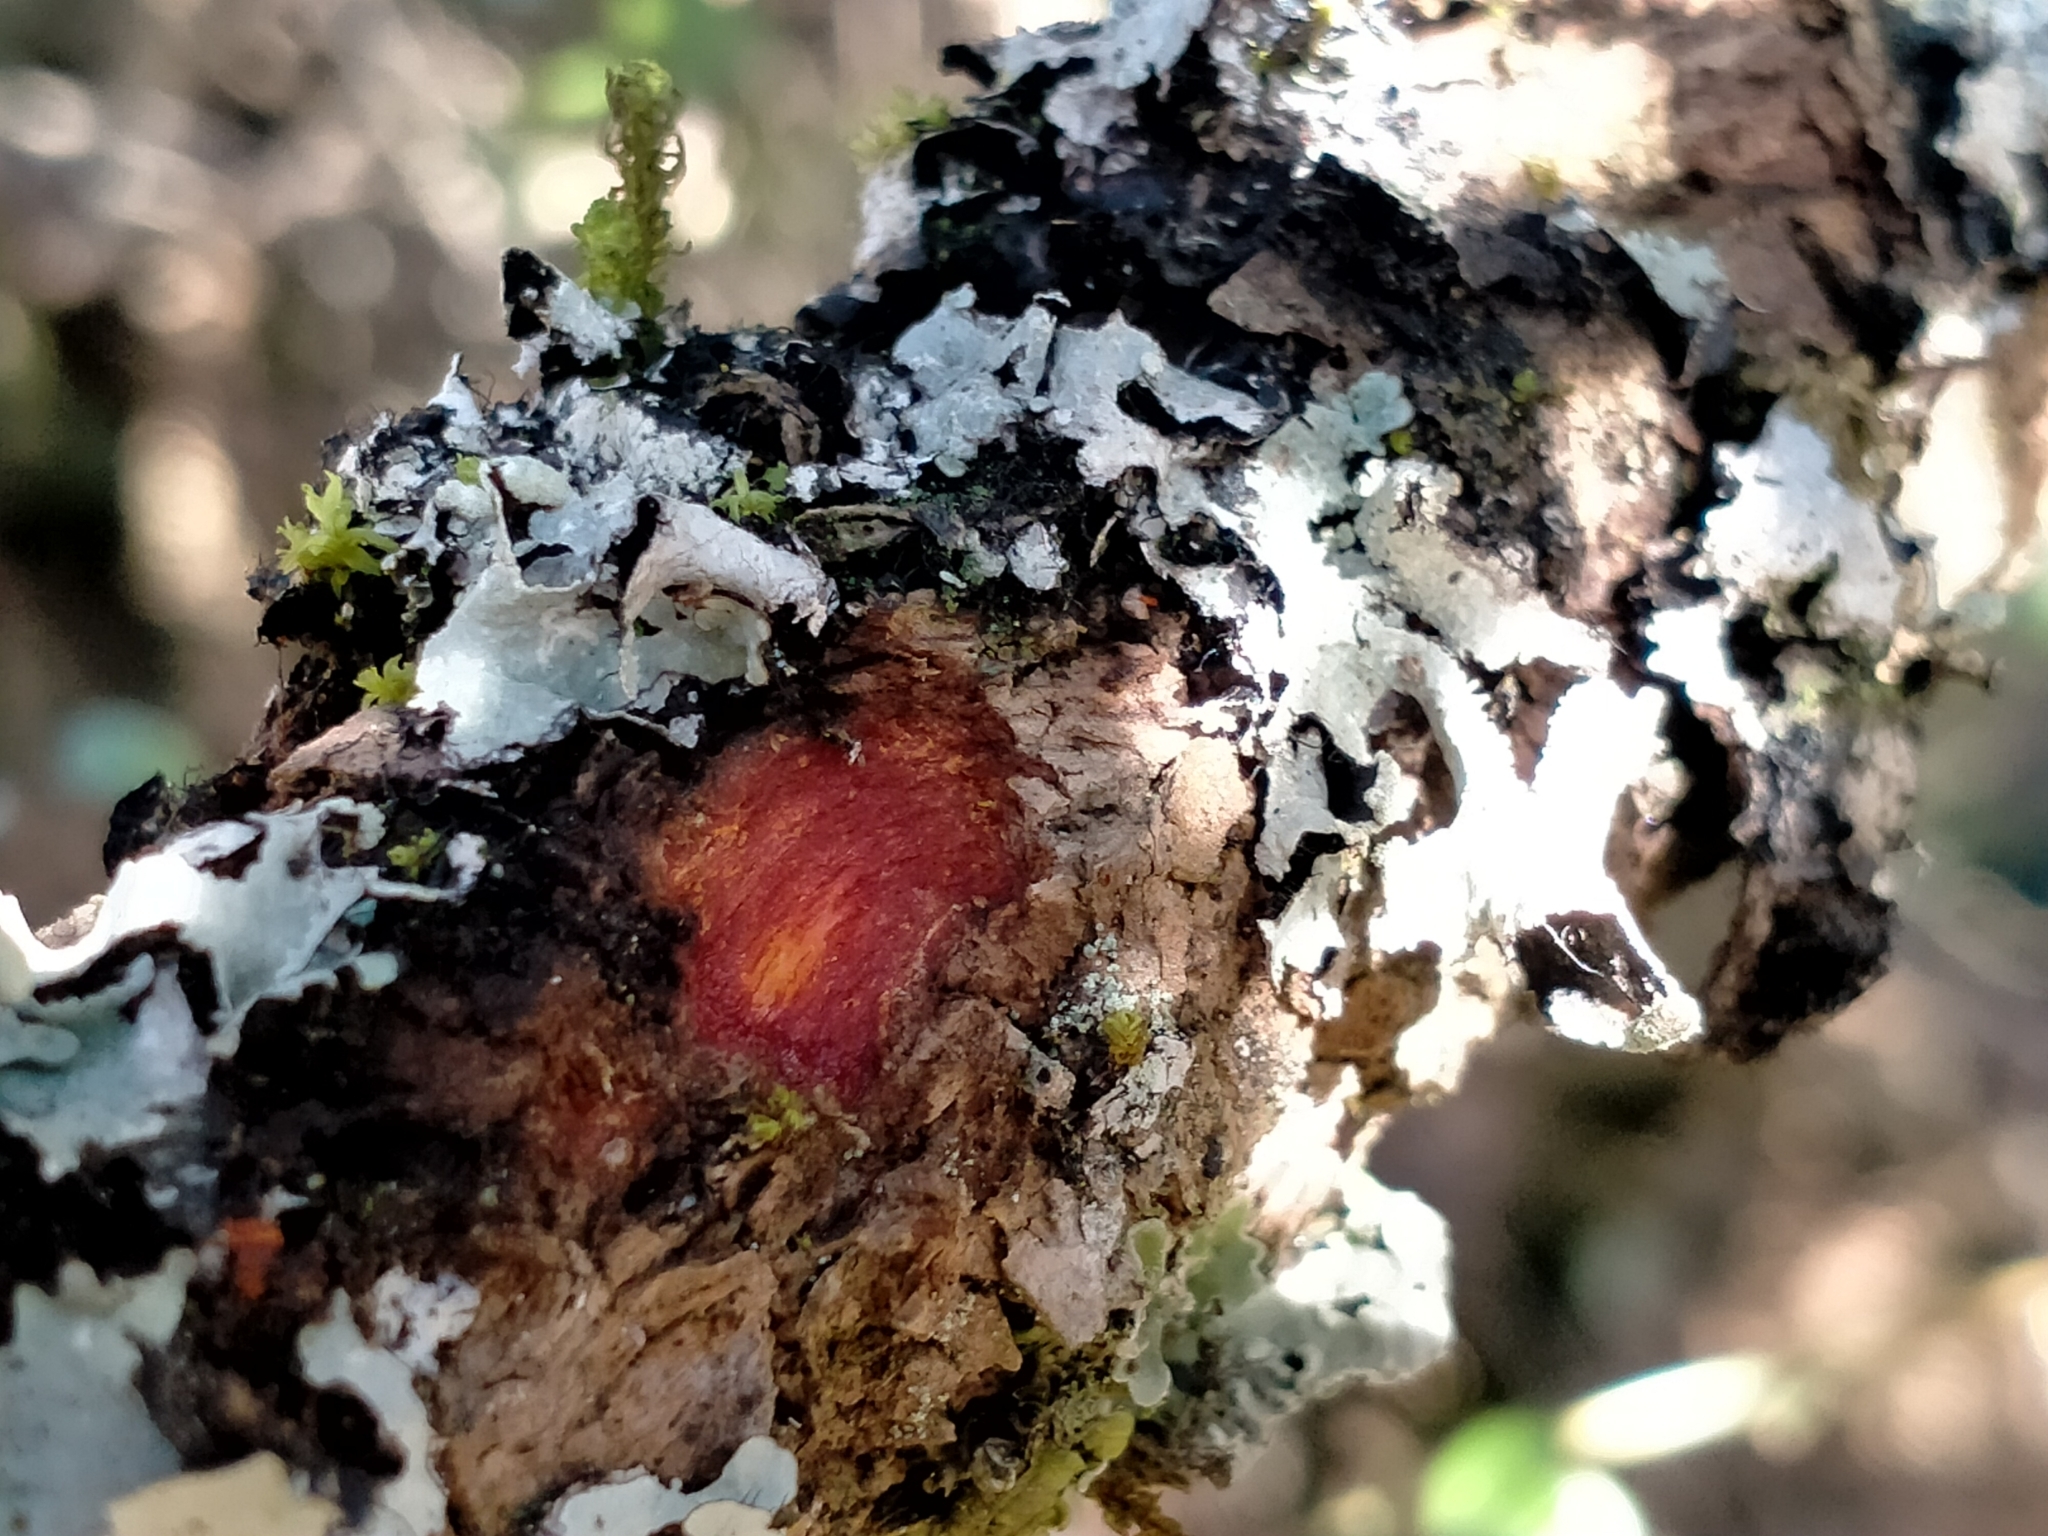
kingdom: Plantae
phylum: Tracheophyta
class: Magnoliopsida
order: Gentianales
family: Rubiaceae
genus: Coprosma
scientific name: Coprosma wallii
